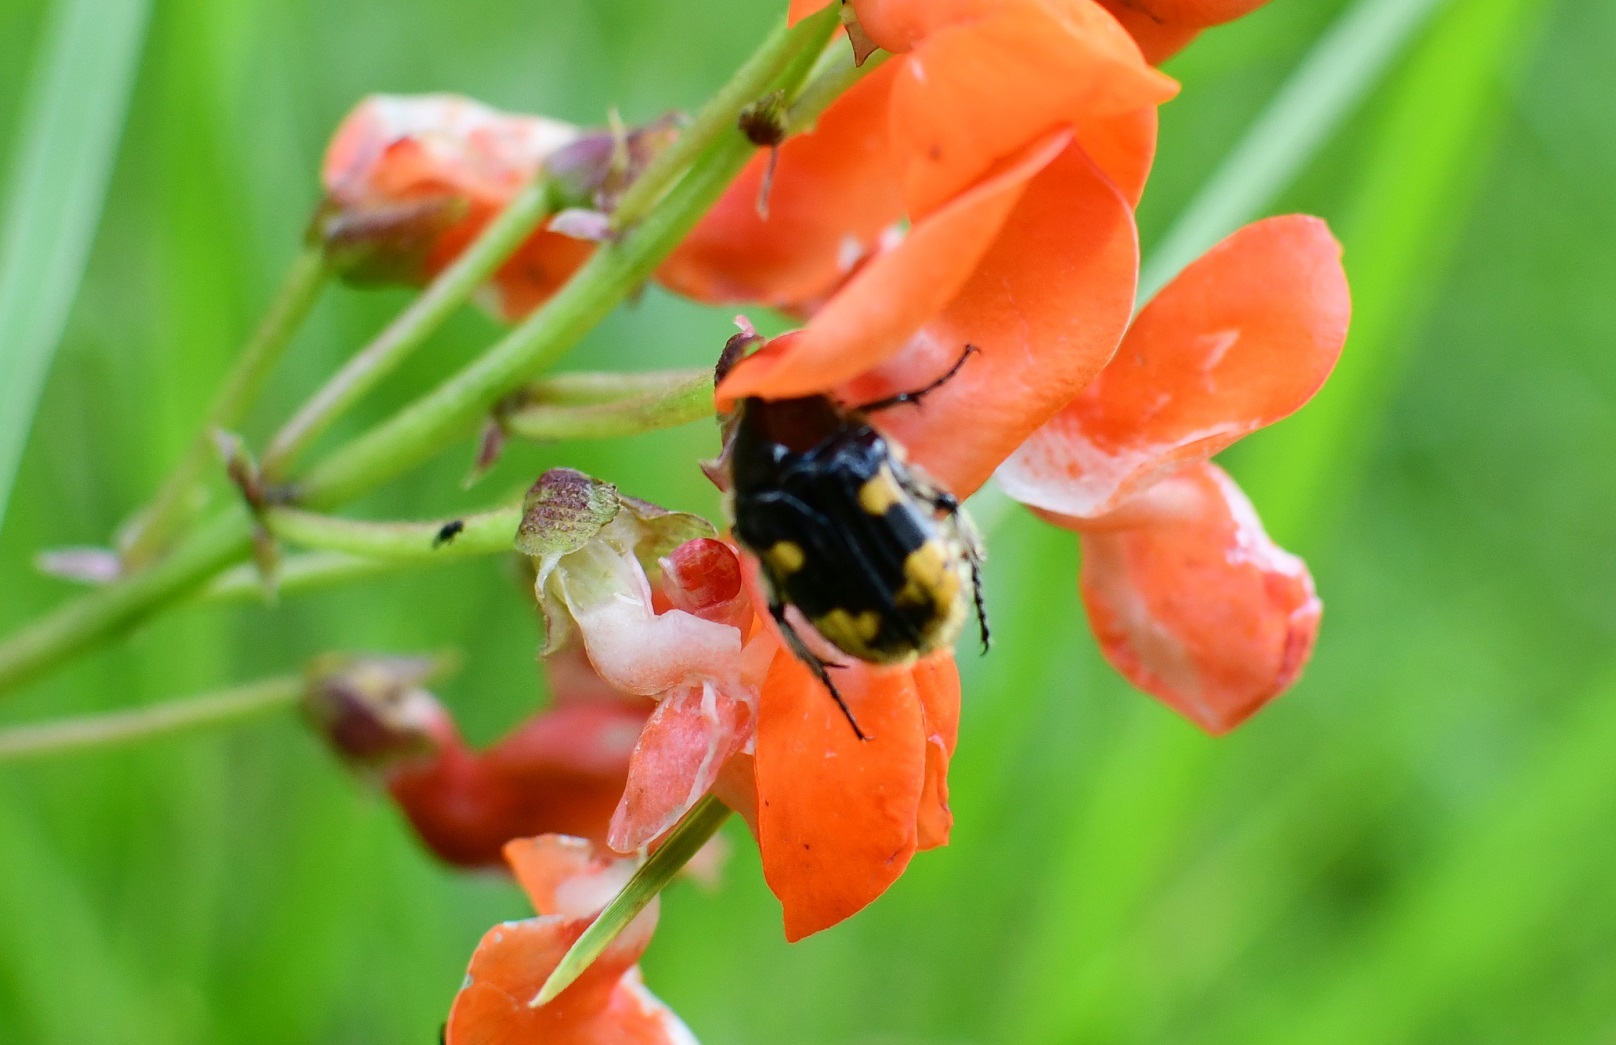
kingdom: Animalia
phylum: Arthropoda
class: Insecta
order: Coleoptera
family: Scarabaeidae
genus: Euphoria
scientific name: Euphoria basalis
